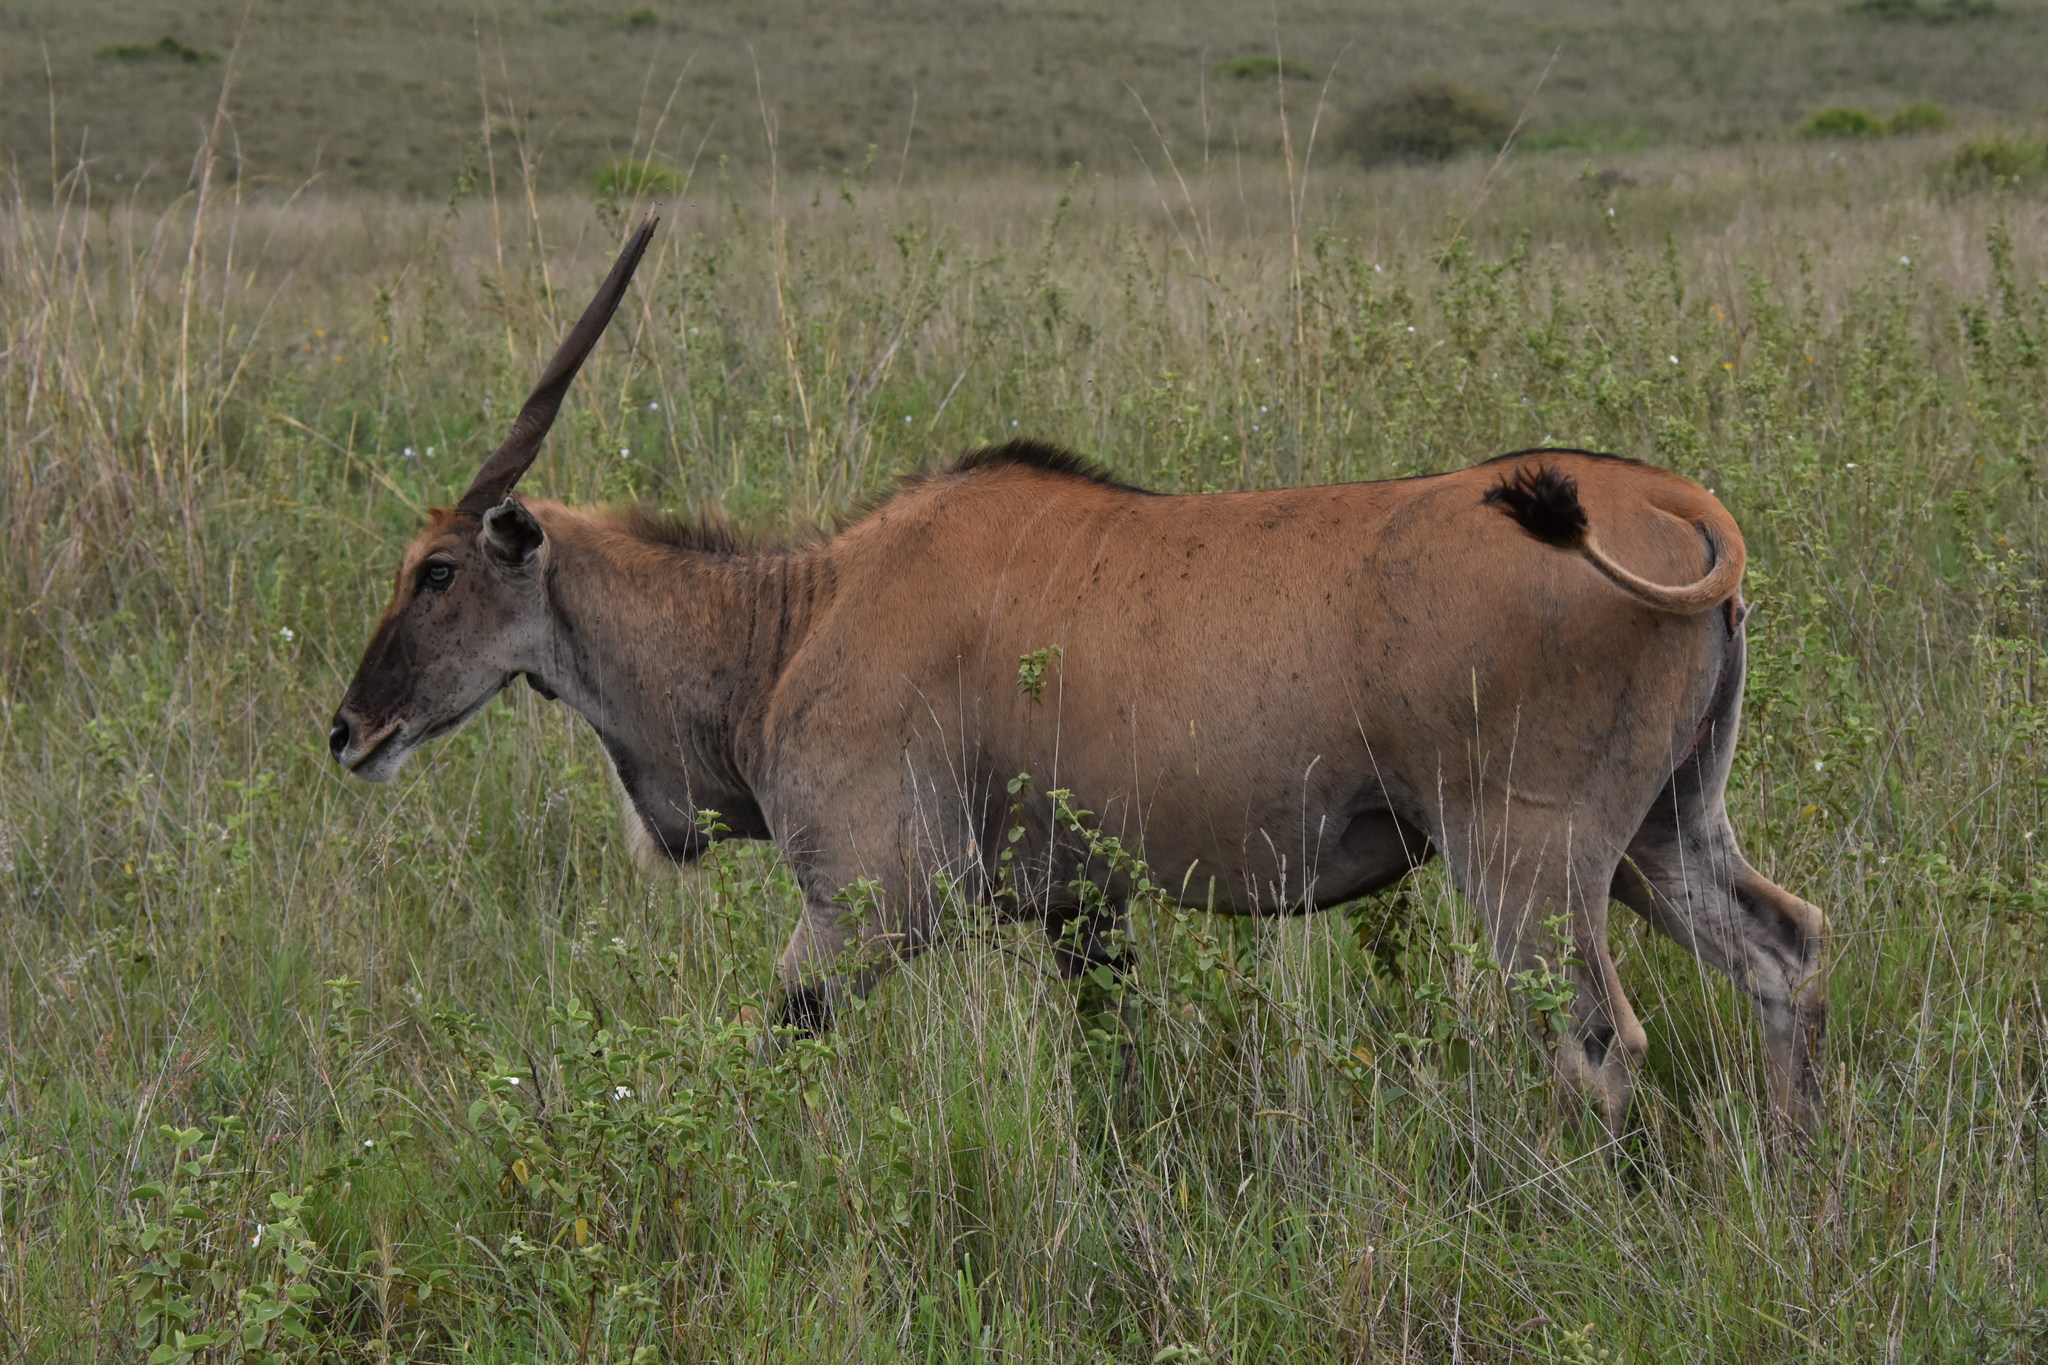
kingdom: Animalia
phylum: Chordata
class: Mammalia
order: Artiodactyla
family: Bovidae
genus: Taurotragus
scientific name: Taurotragus oryx
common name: Common eland
